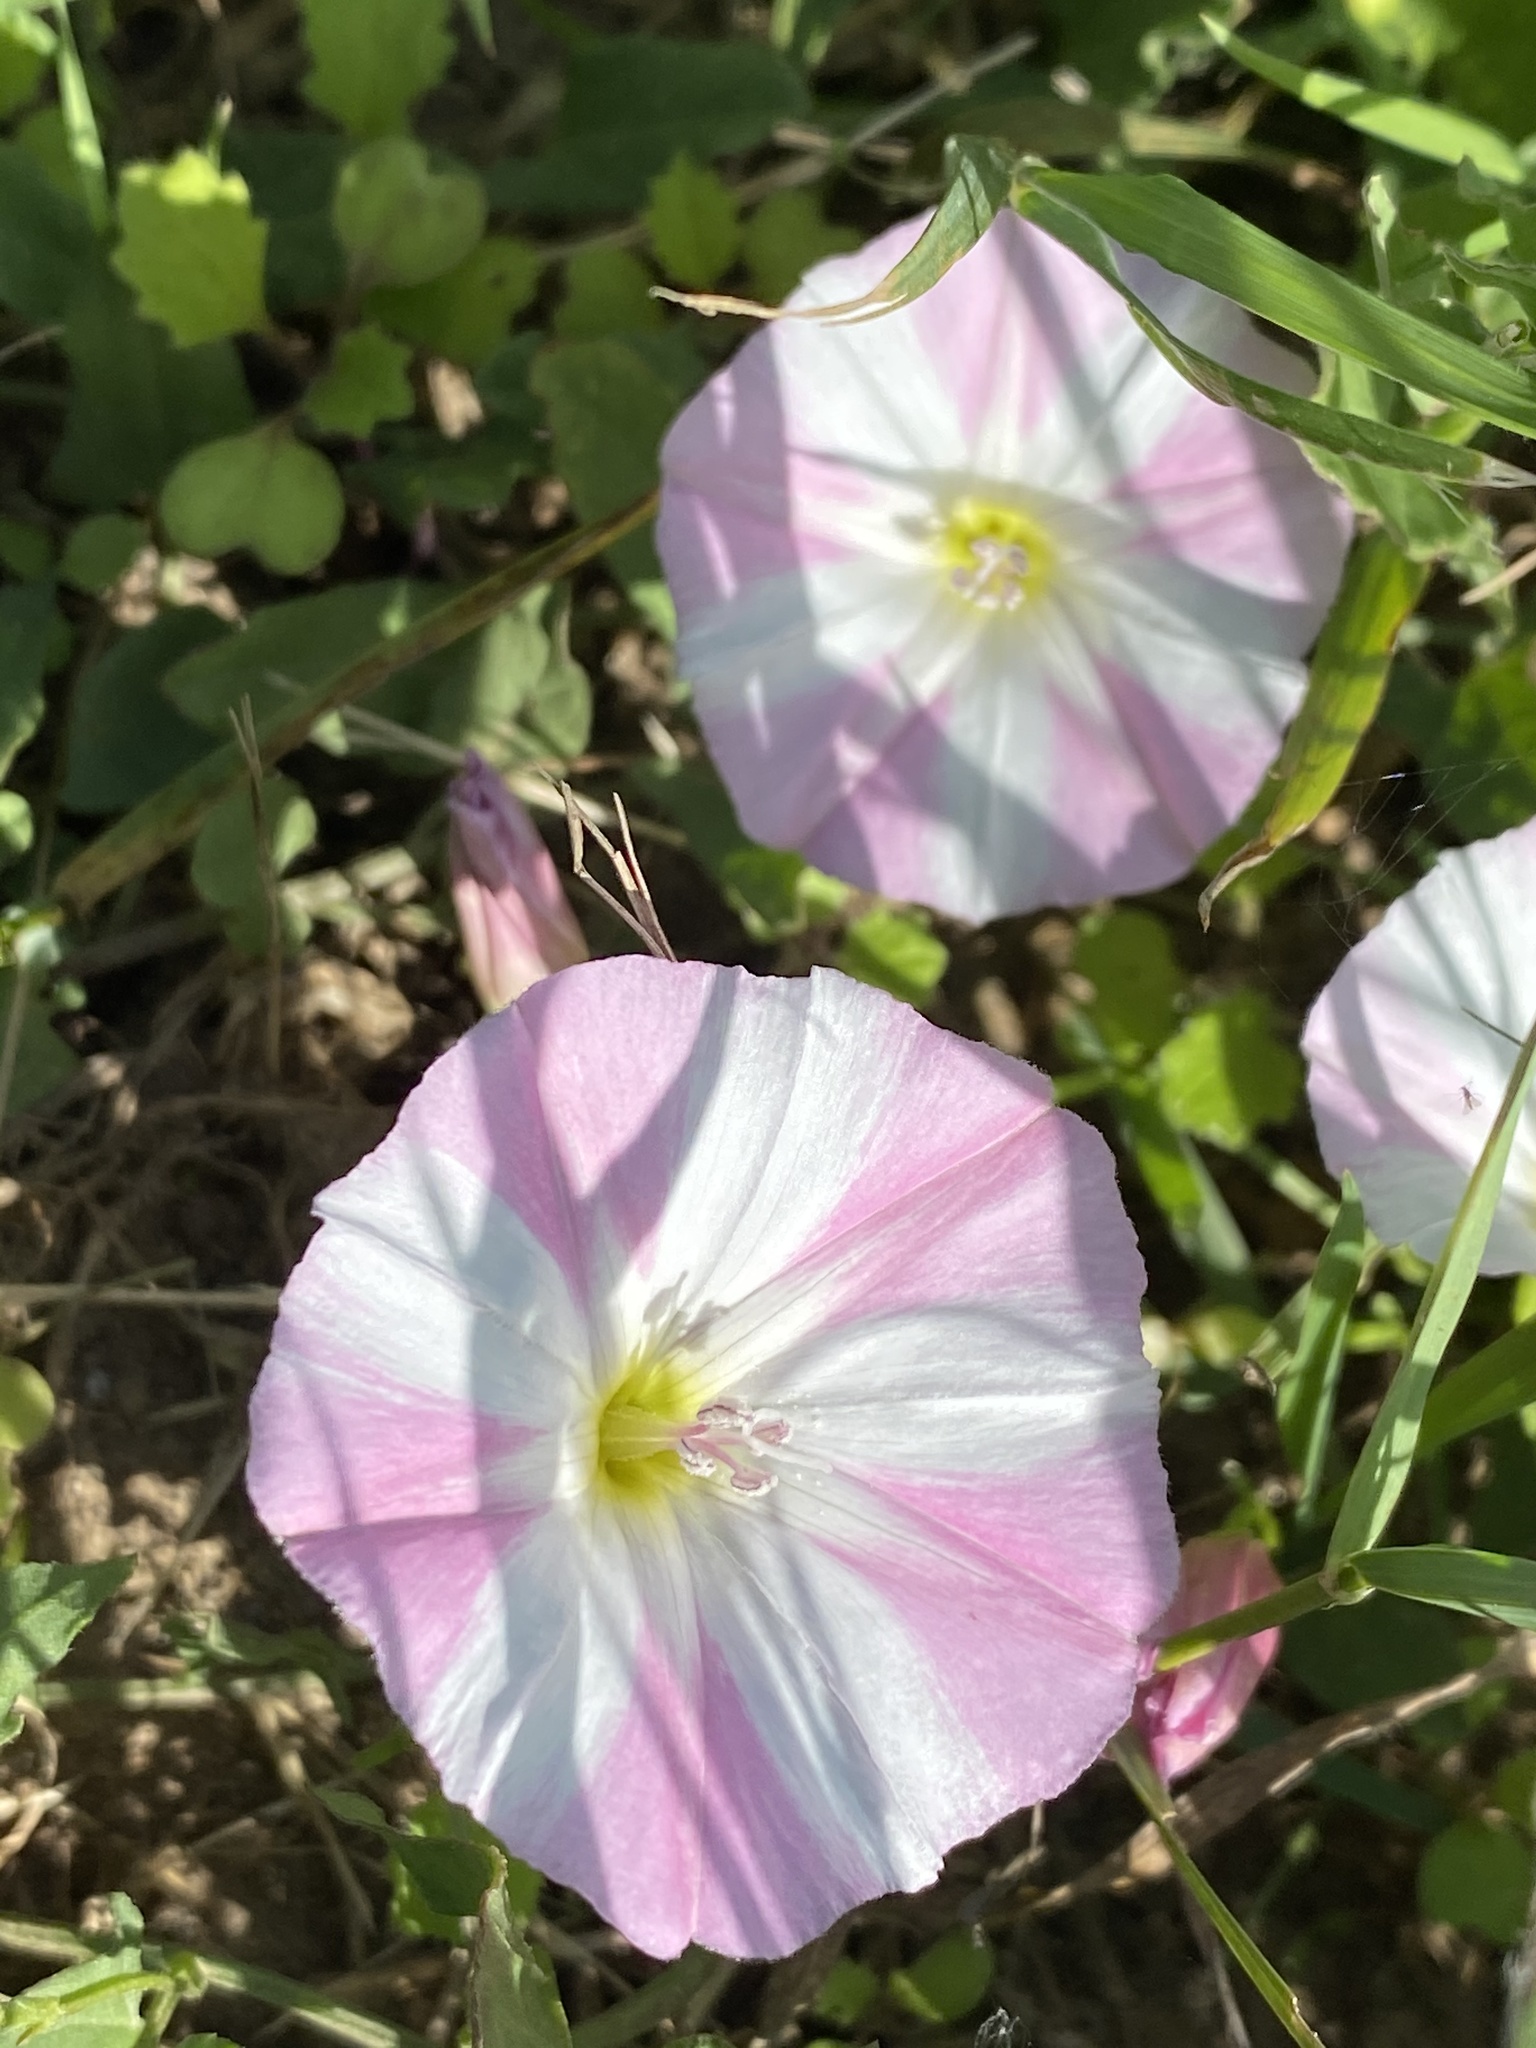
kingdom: Plantae
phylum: Tracheophyta
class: Magnoliopsida
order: Solanales
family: Convolvulaceae
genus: Convolvulus
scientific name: Convolvulus arvensis
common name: Field bindweed
